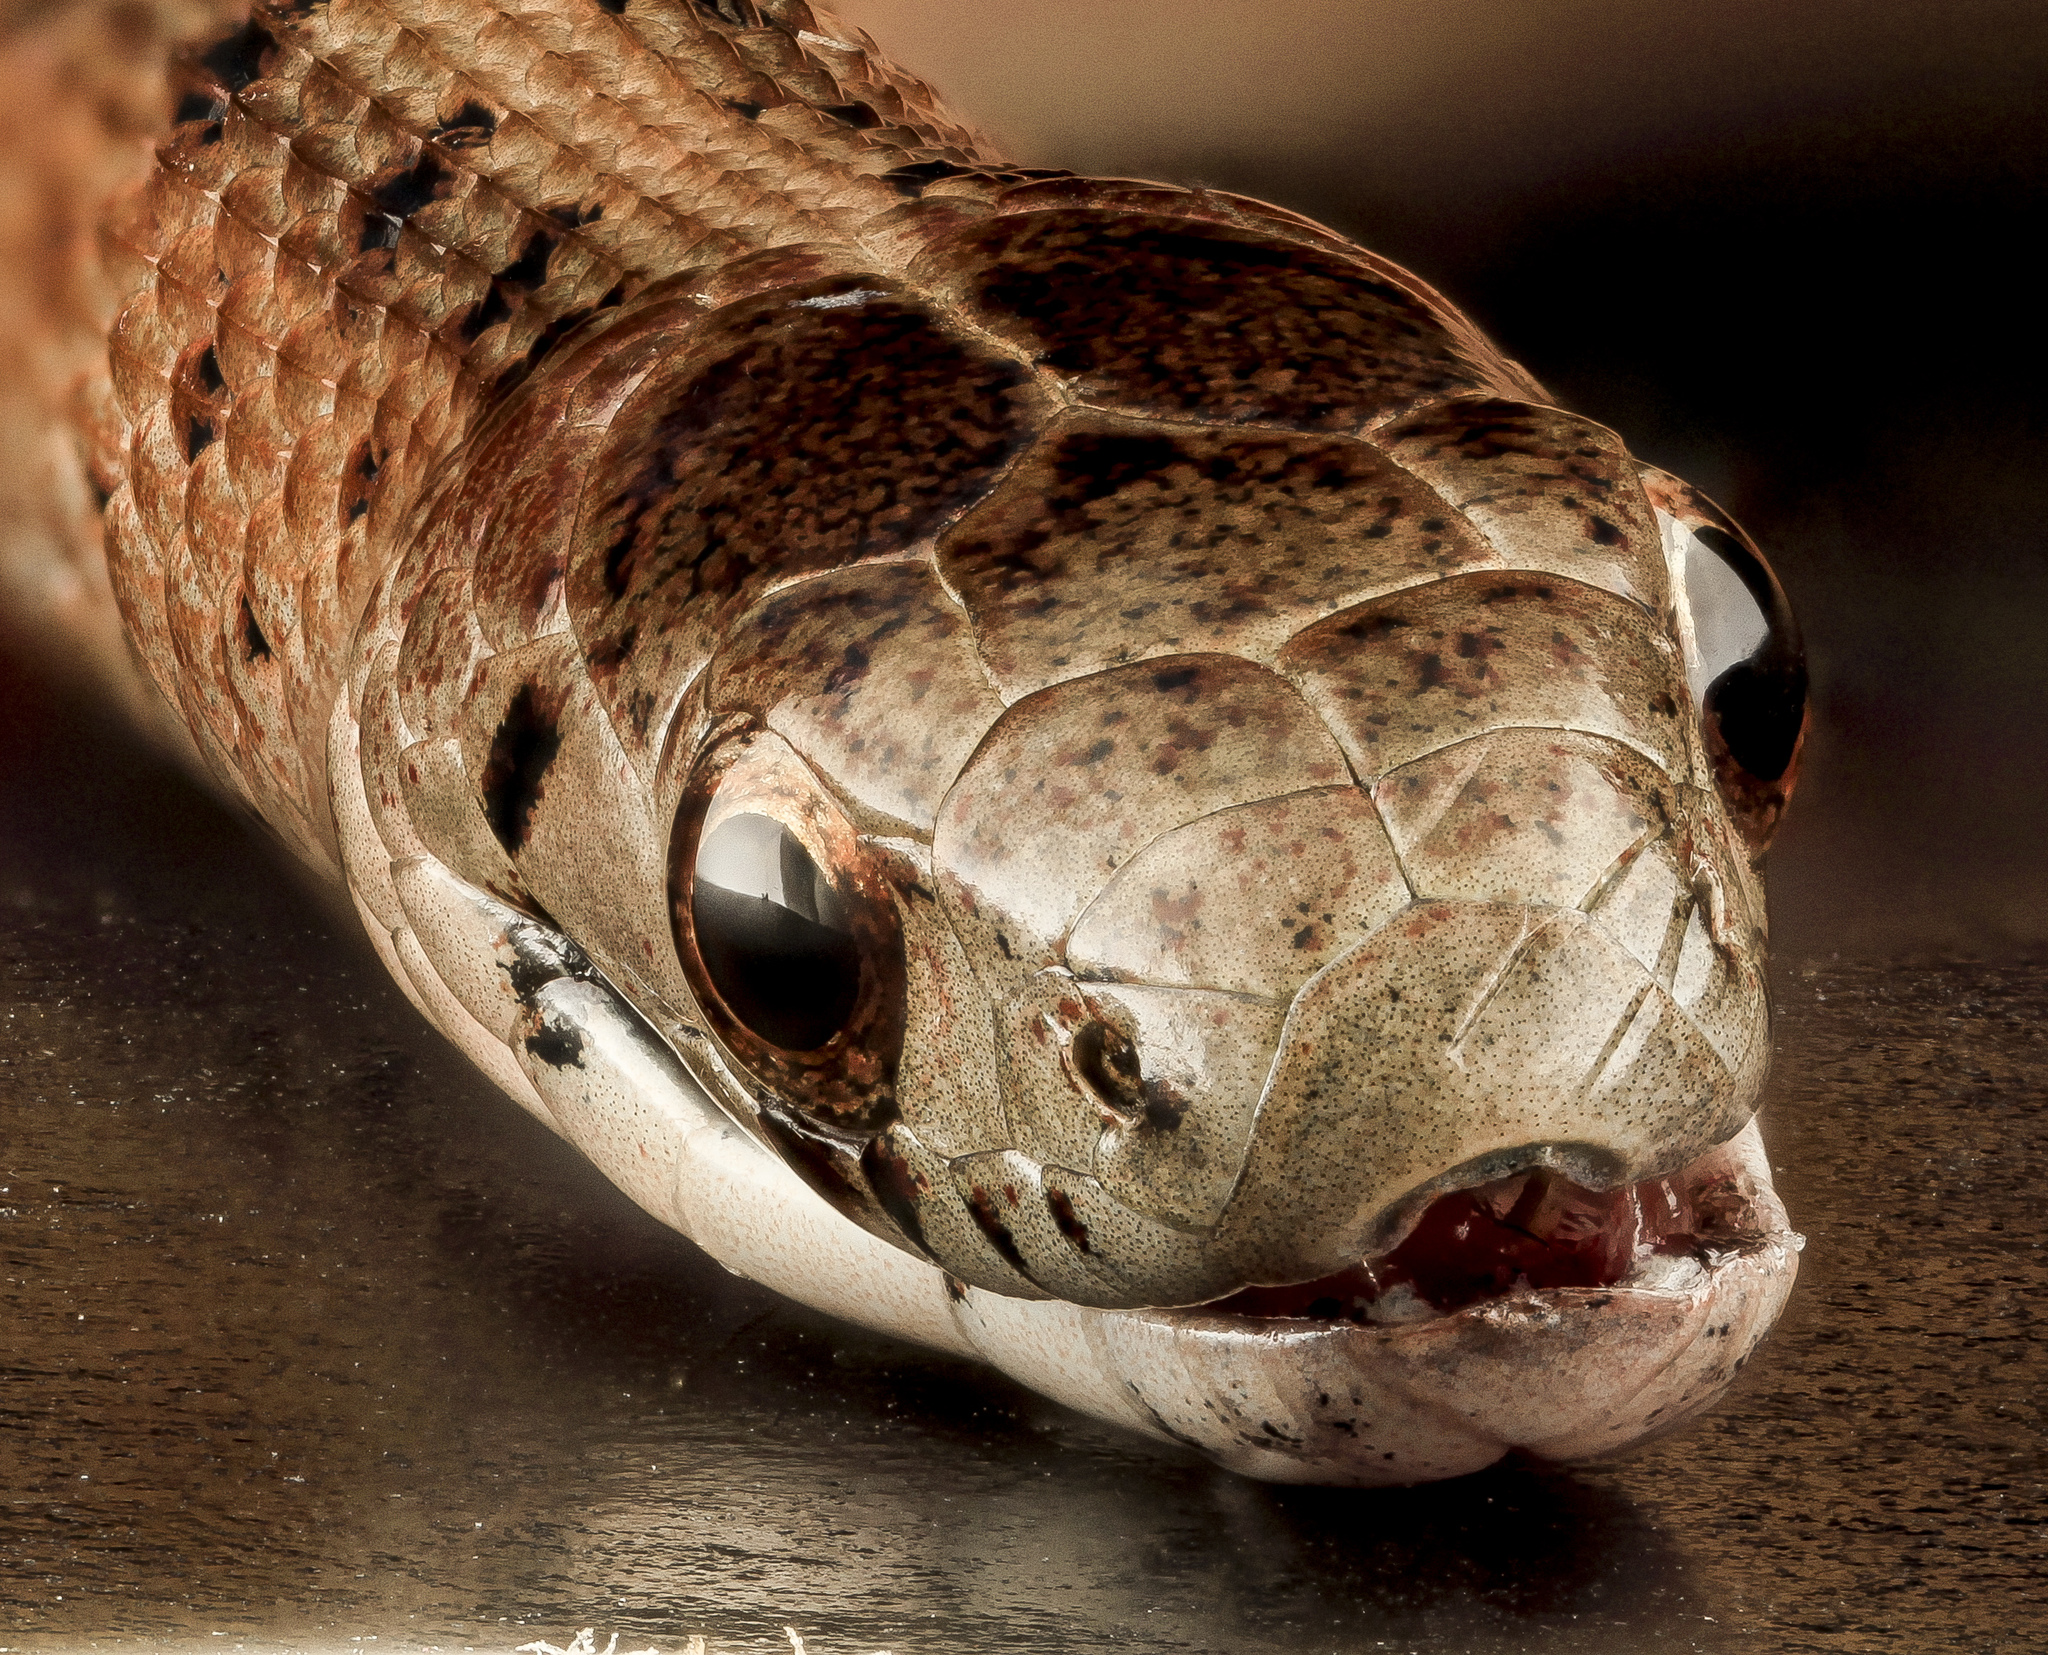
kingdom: Animalia
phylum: Chordata
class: Squamata
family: Colubridae
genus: Storeria
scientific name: Storeria dekayi
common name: (dekay’s) brown snake
